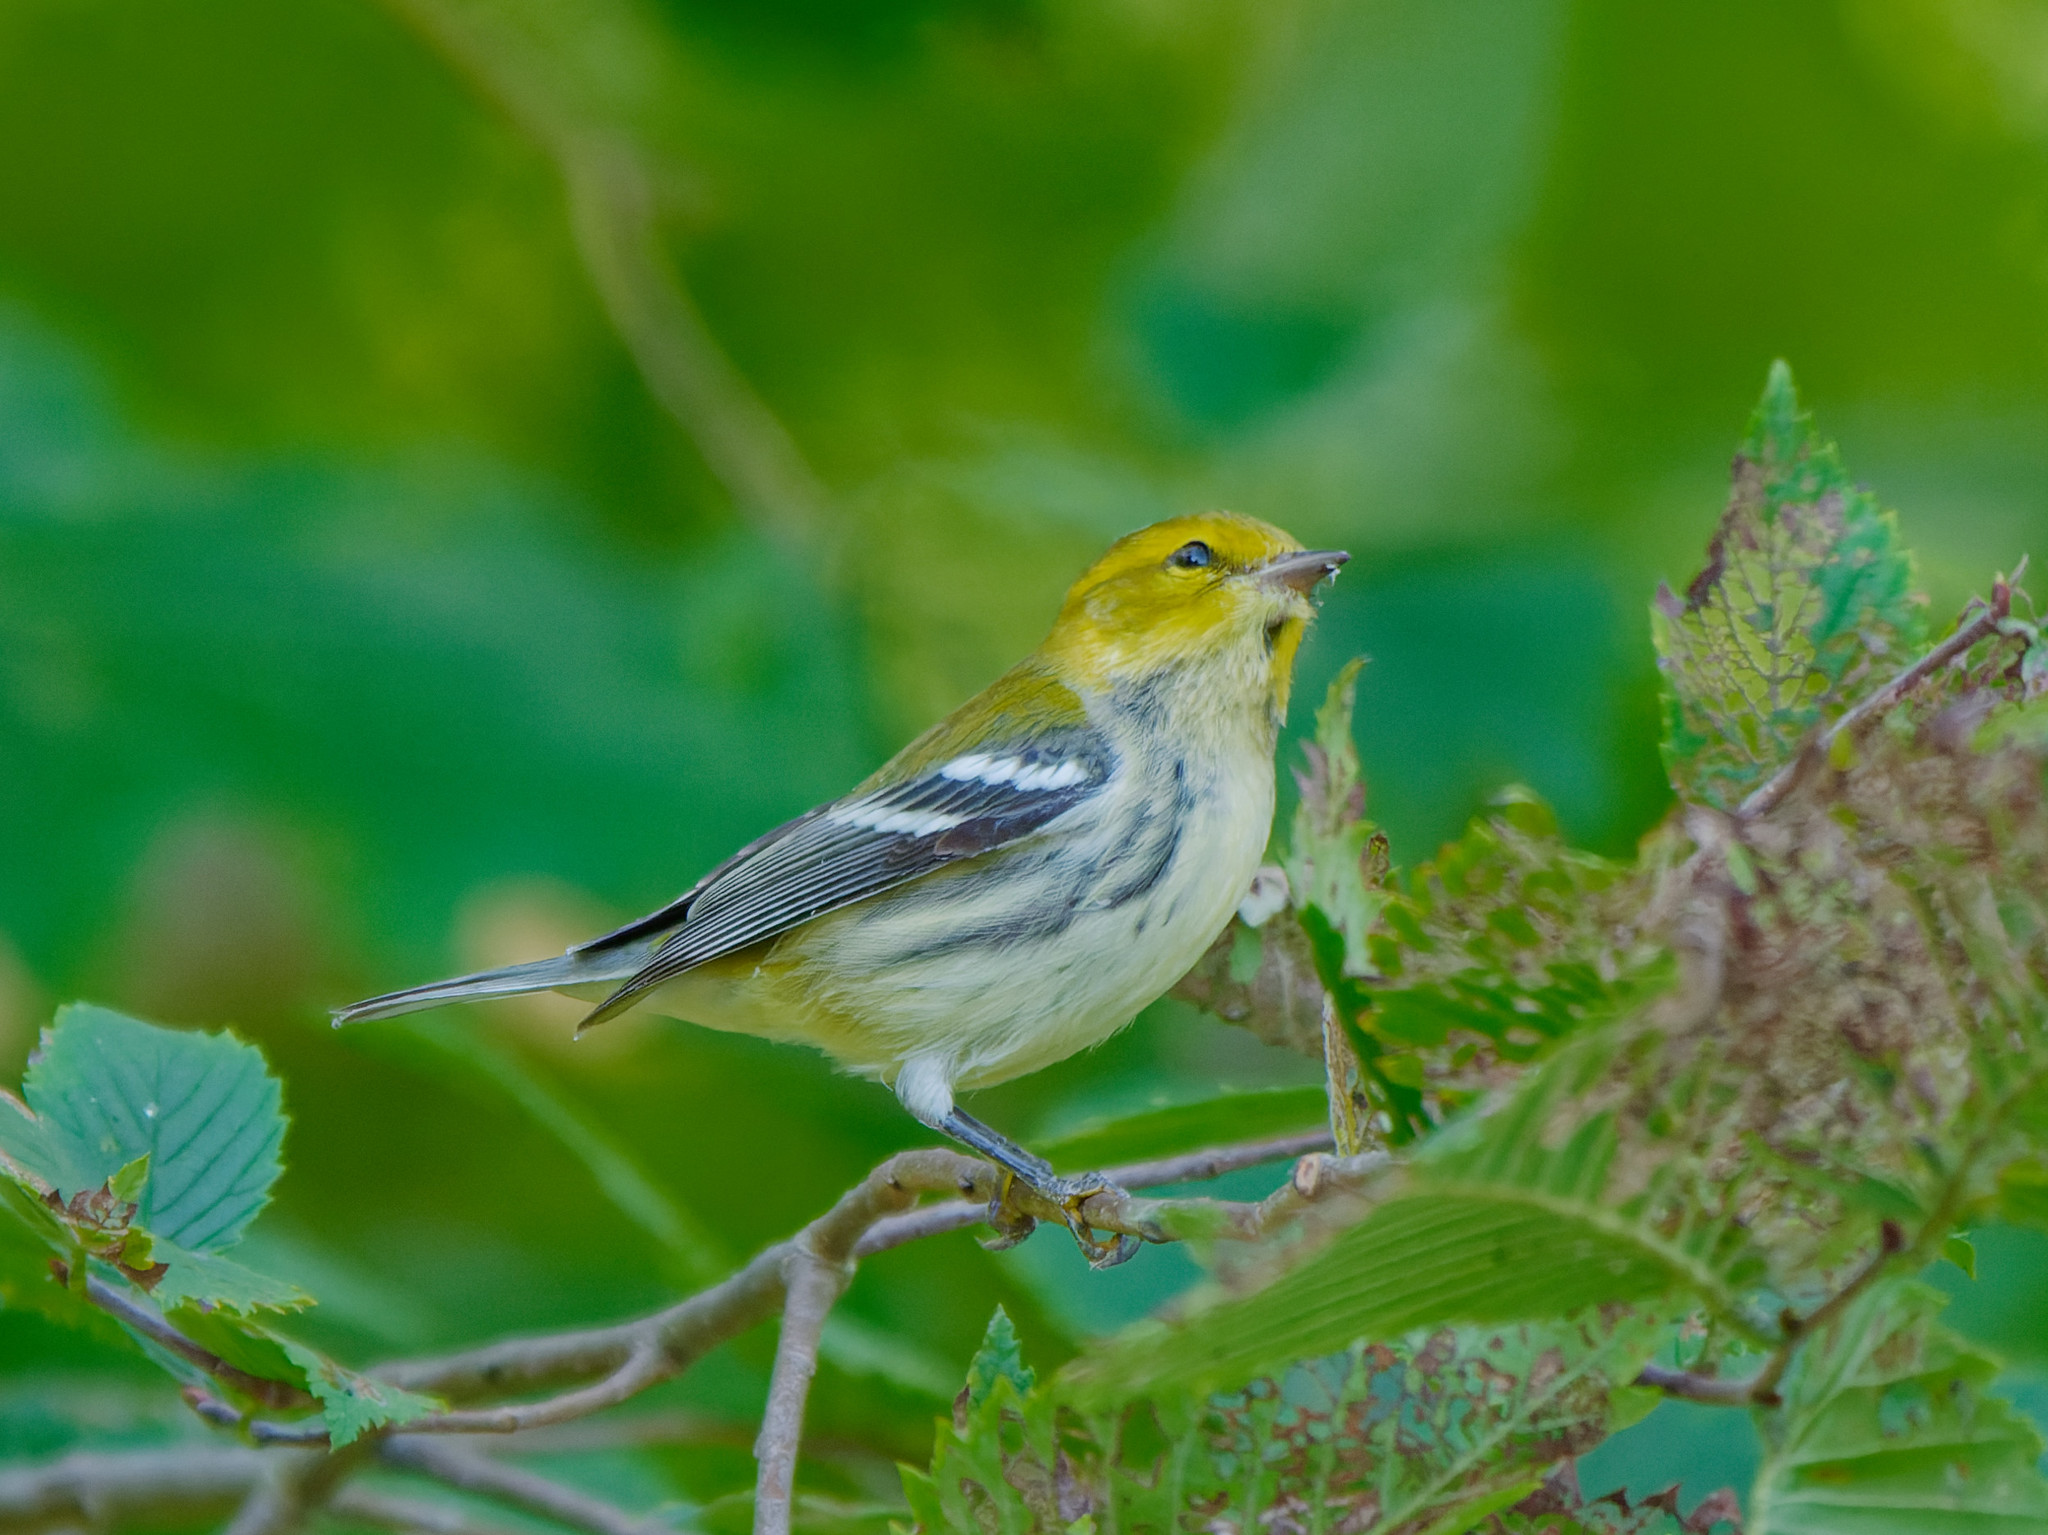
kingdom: Animalia
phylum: Chordata
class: Aves
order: Passeriformes
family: Parulidae
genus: Setophaga
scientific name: Setophaga virens
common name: Black-throated green warbler
